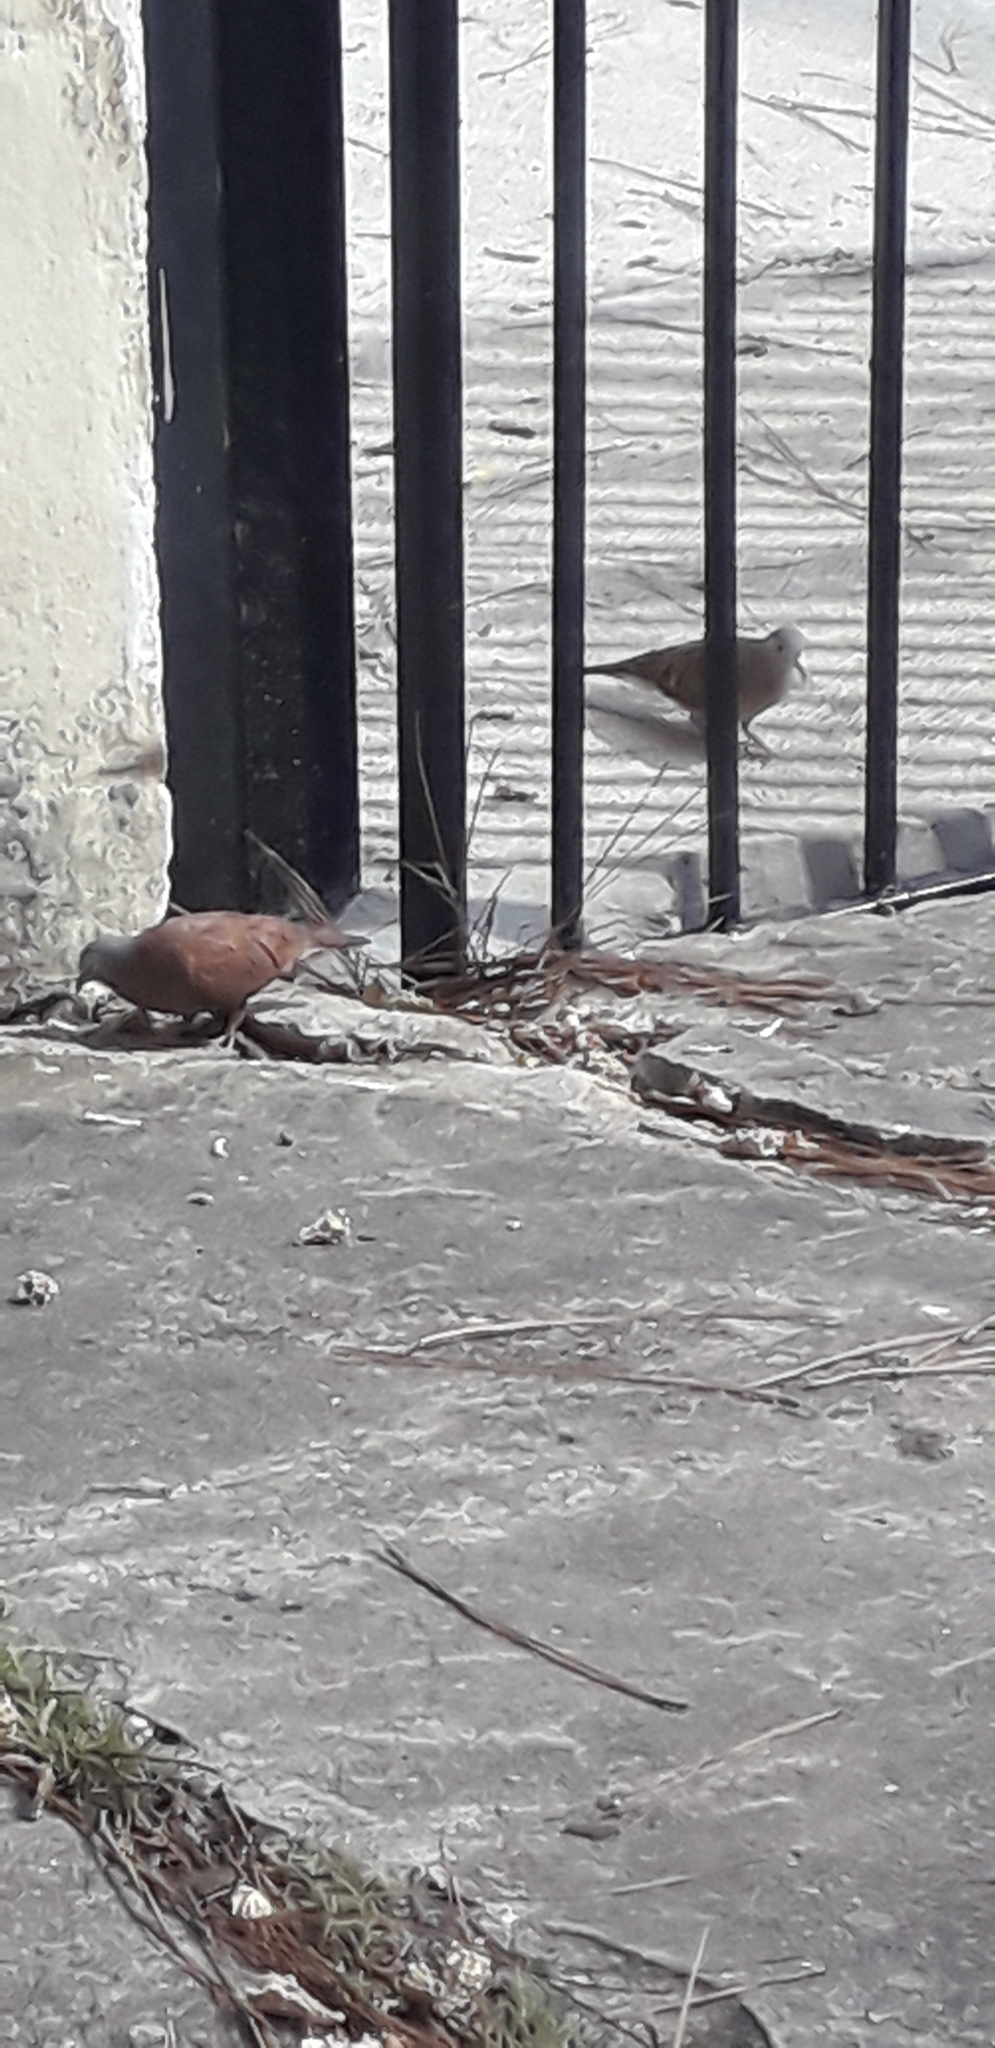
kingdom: Animalia
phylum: Chordata
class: Aves
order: Columbiformes
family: Columbidae
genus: Columbina
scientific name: Columbina talpacoti
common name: Ruddy ground dove
